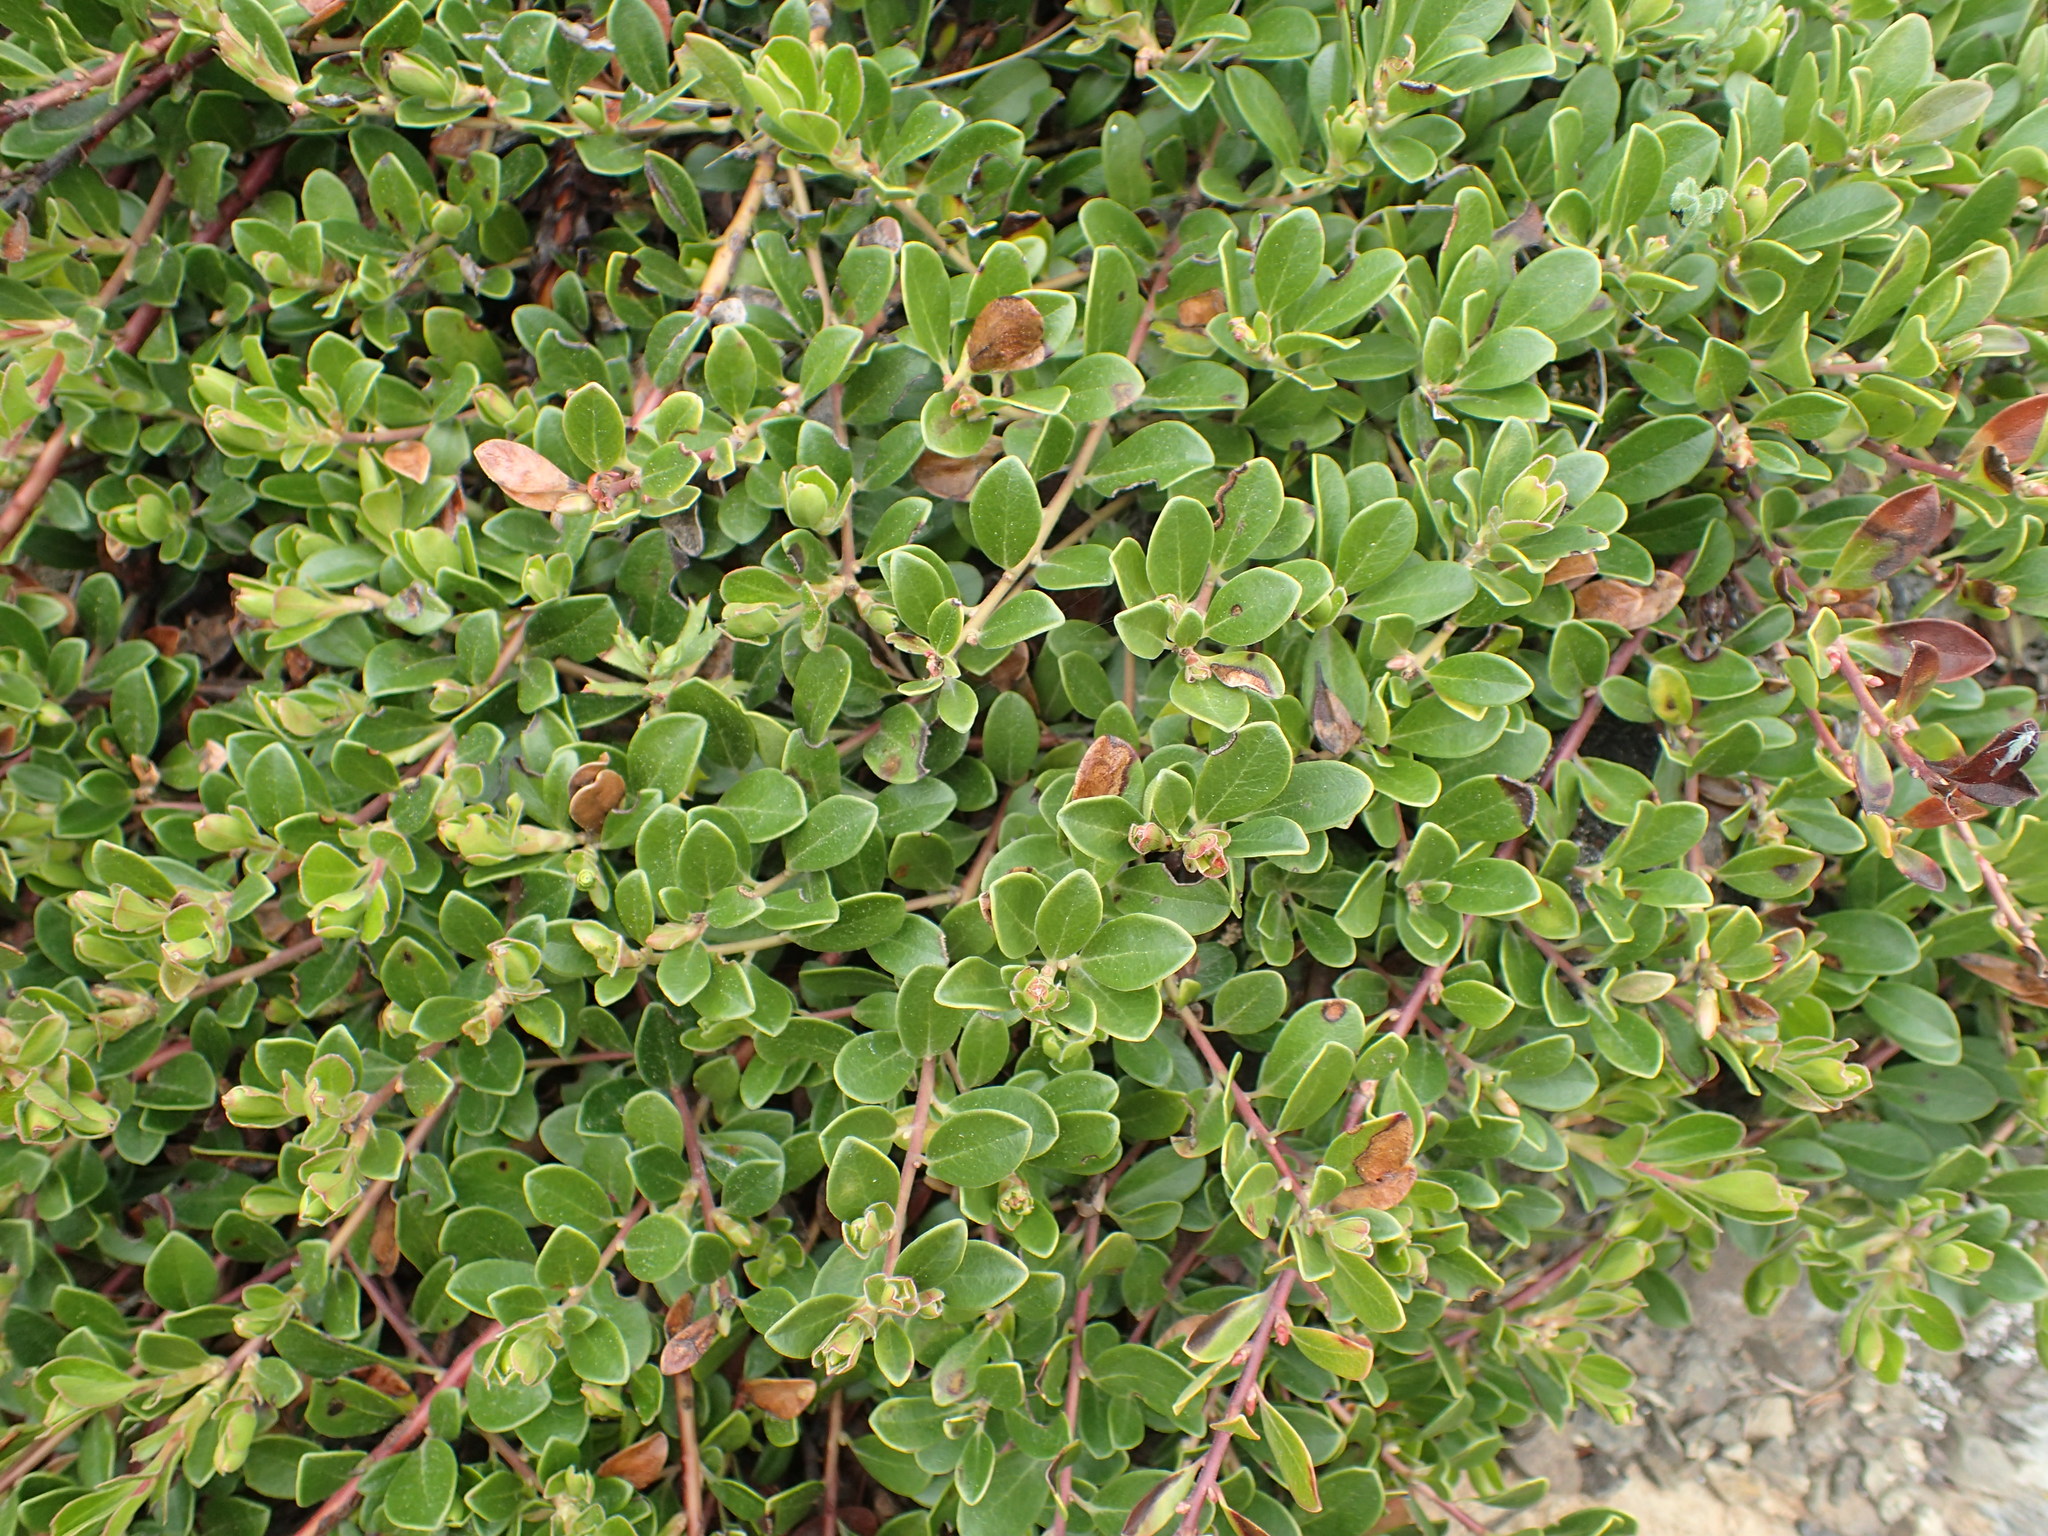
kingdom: Plantae
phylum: Tracheophyta
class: Magnoliopsida
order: Ericales
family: Ericaceae
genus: Arctostaphylos
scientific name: Arctostaphylos uva-ursi
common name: Bearberry
